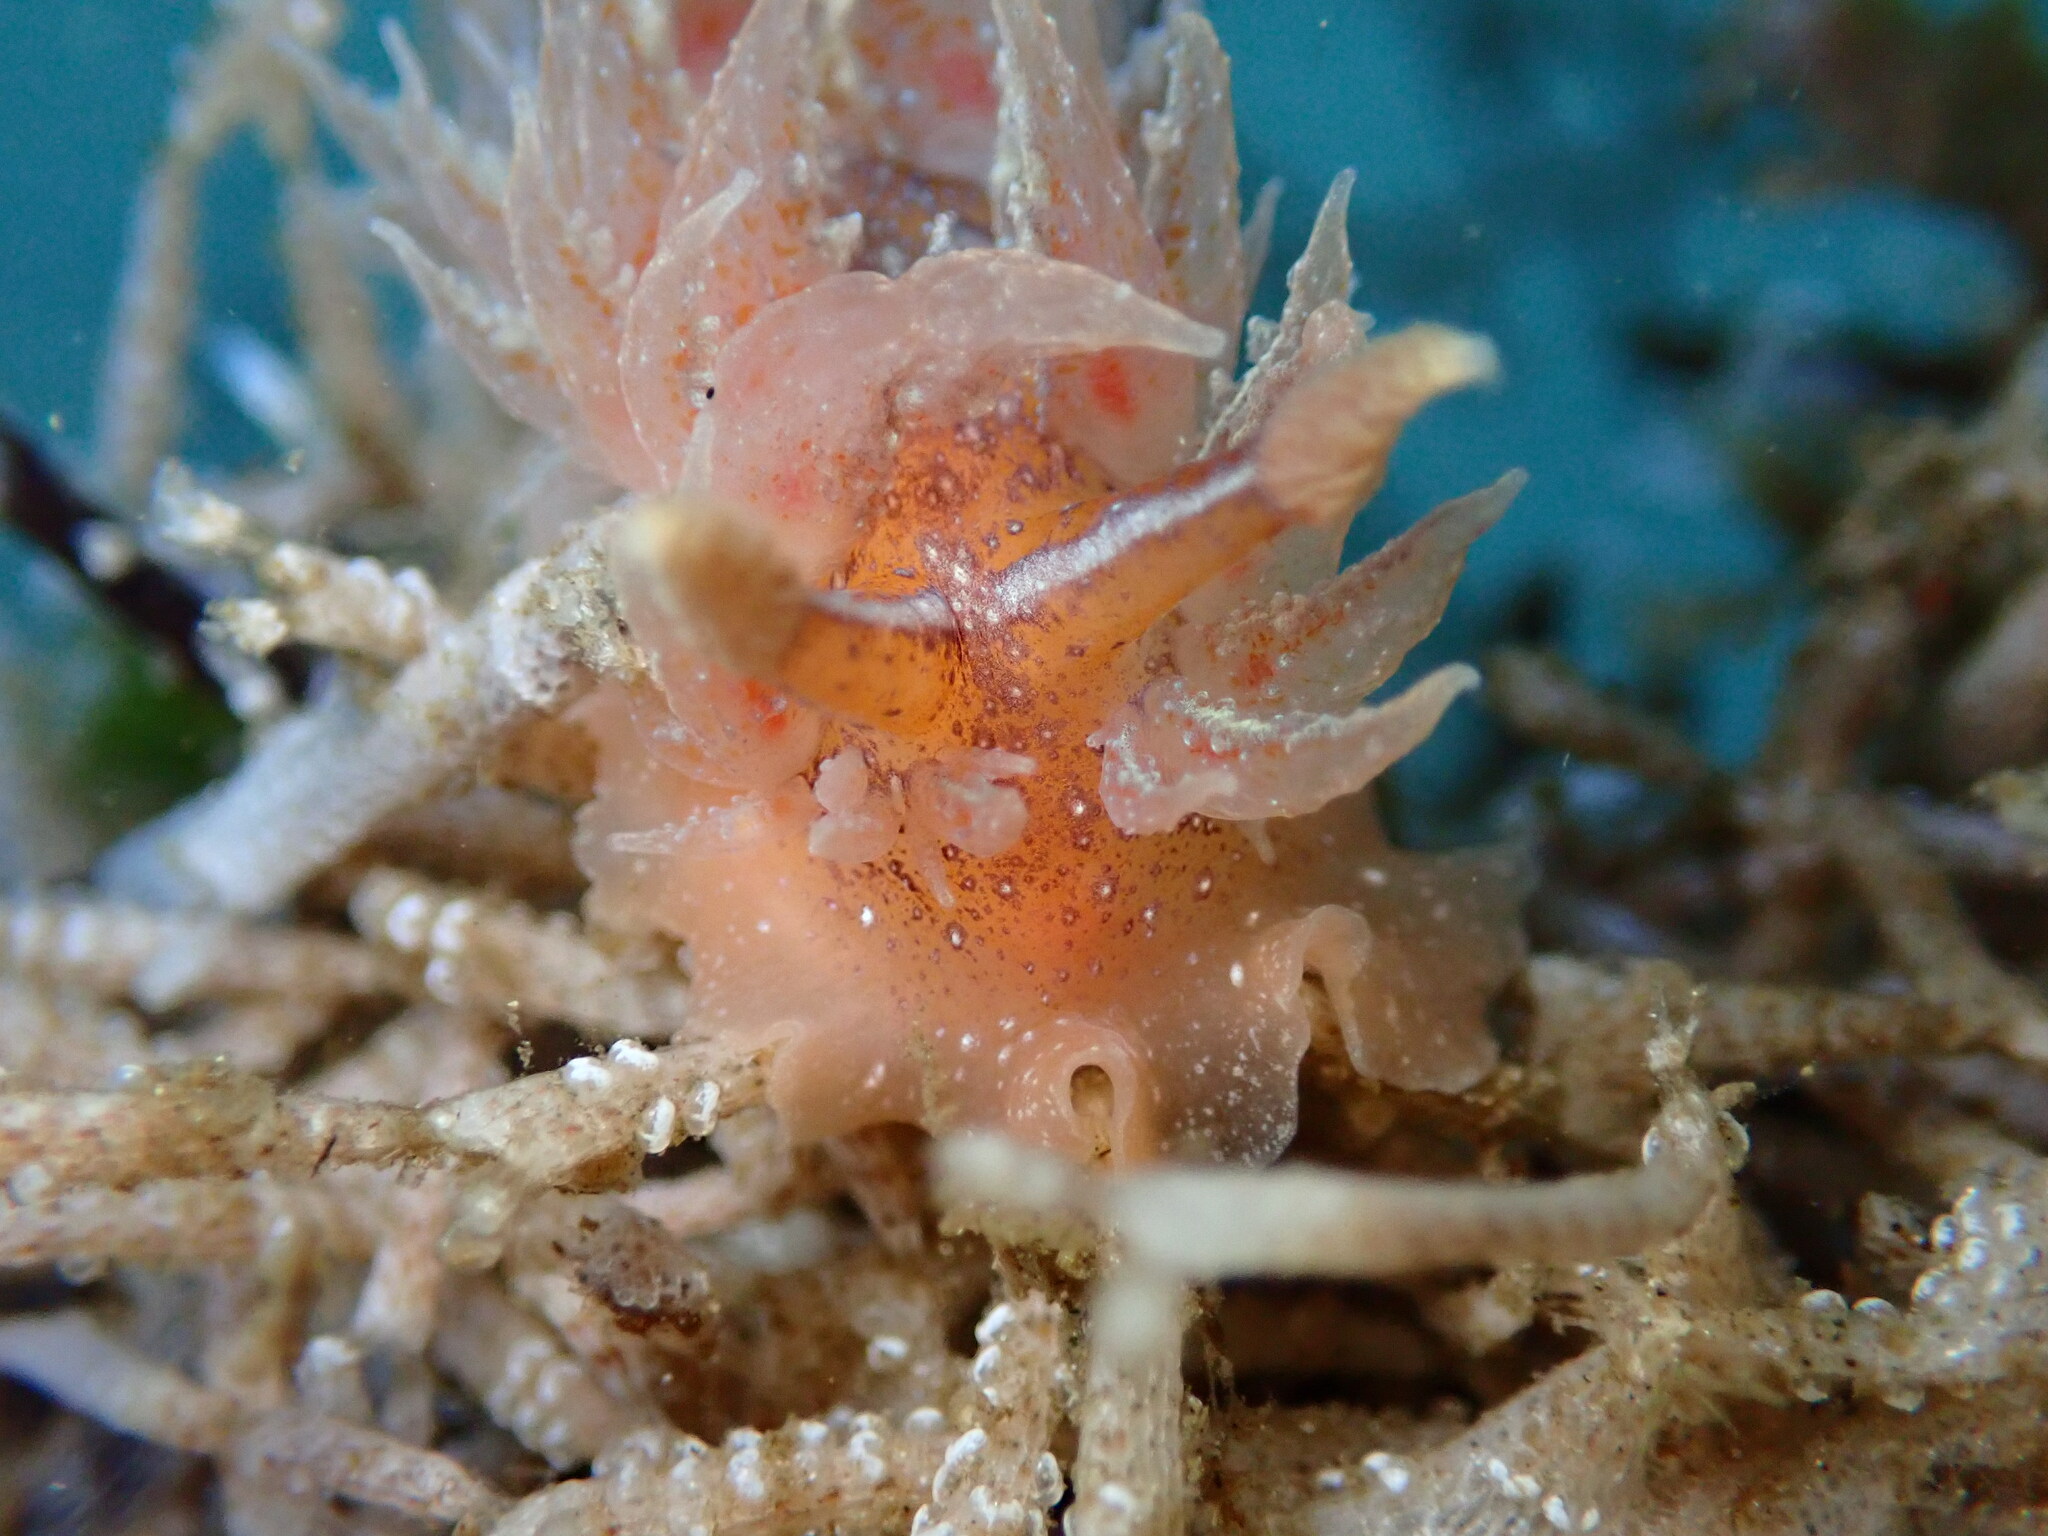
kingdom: Animalia
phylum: Mollusca
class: Gastropoda
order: Nudibranchia
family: Dironidae
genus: Dirona
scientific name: Dirona picta
